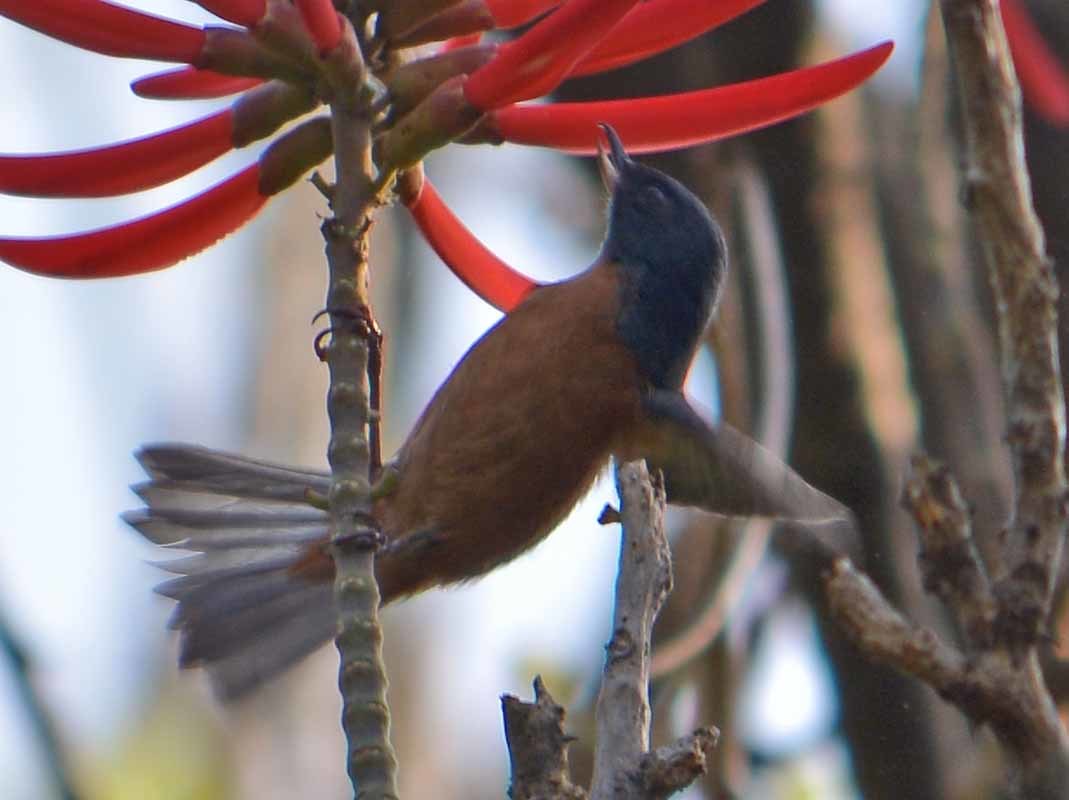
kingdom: Animalia
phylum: Chordata
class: Aves
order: Passeriformes
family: Thraupidae
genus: Diglossa
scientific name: Diglossa baritula
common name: Cinnamon-bellied flowerpiercer
